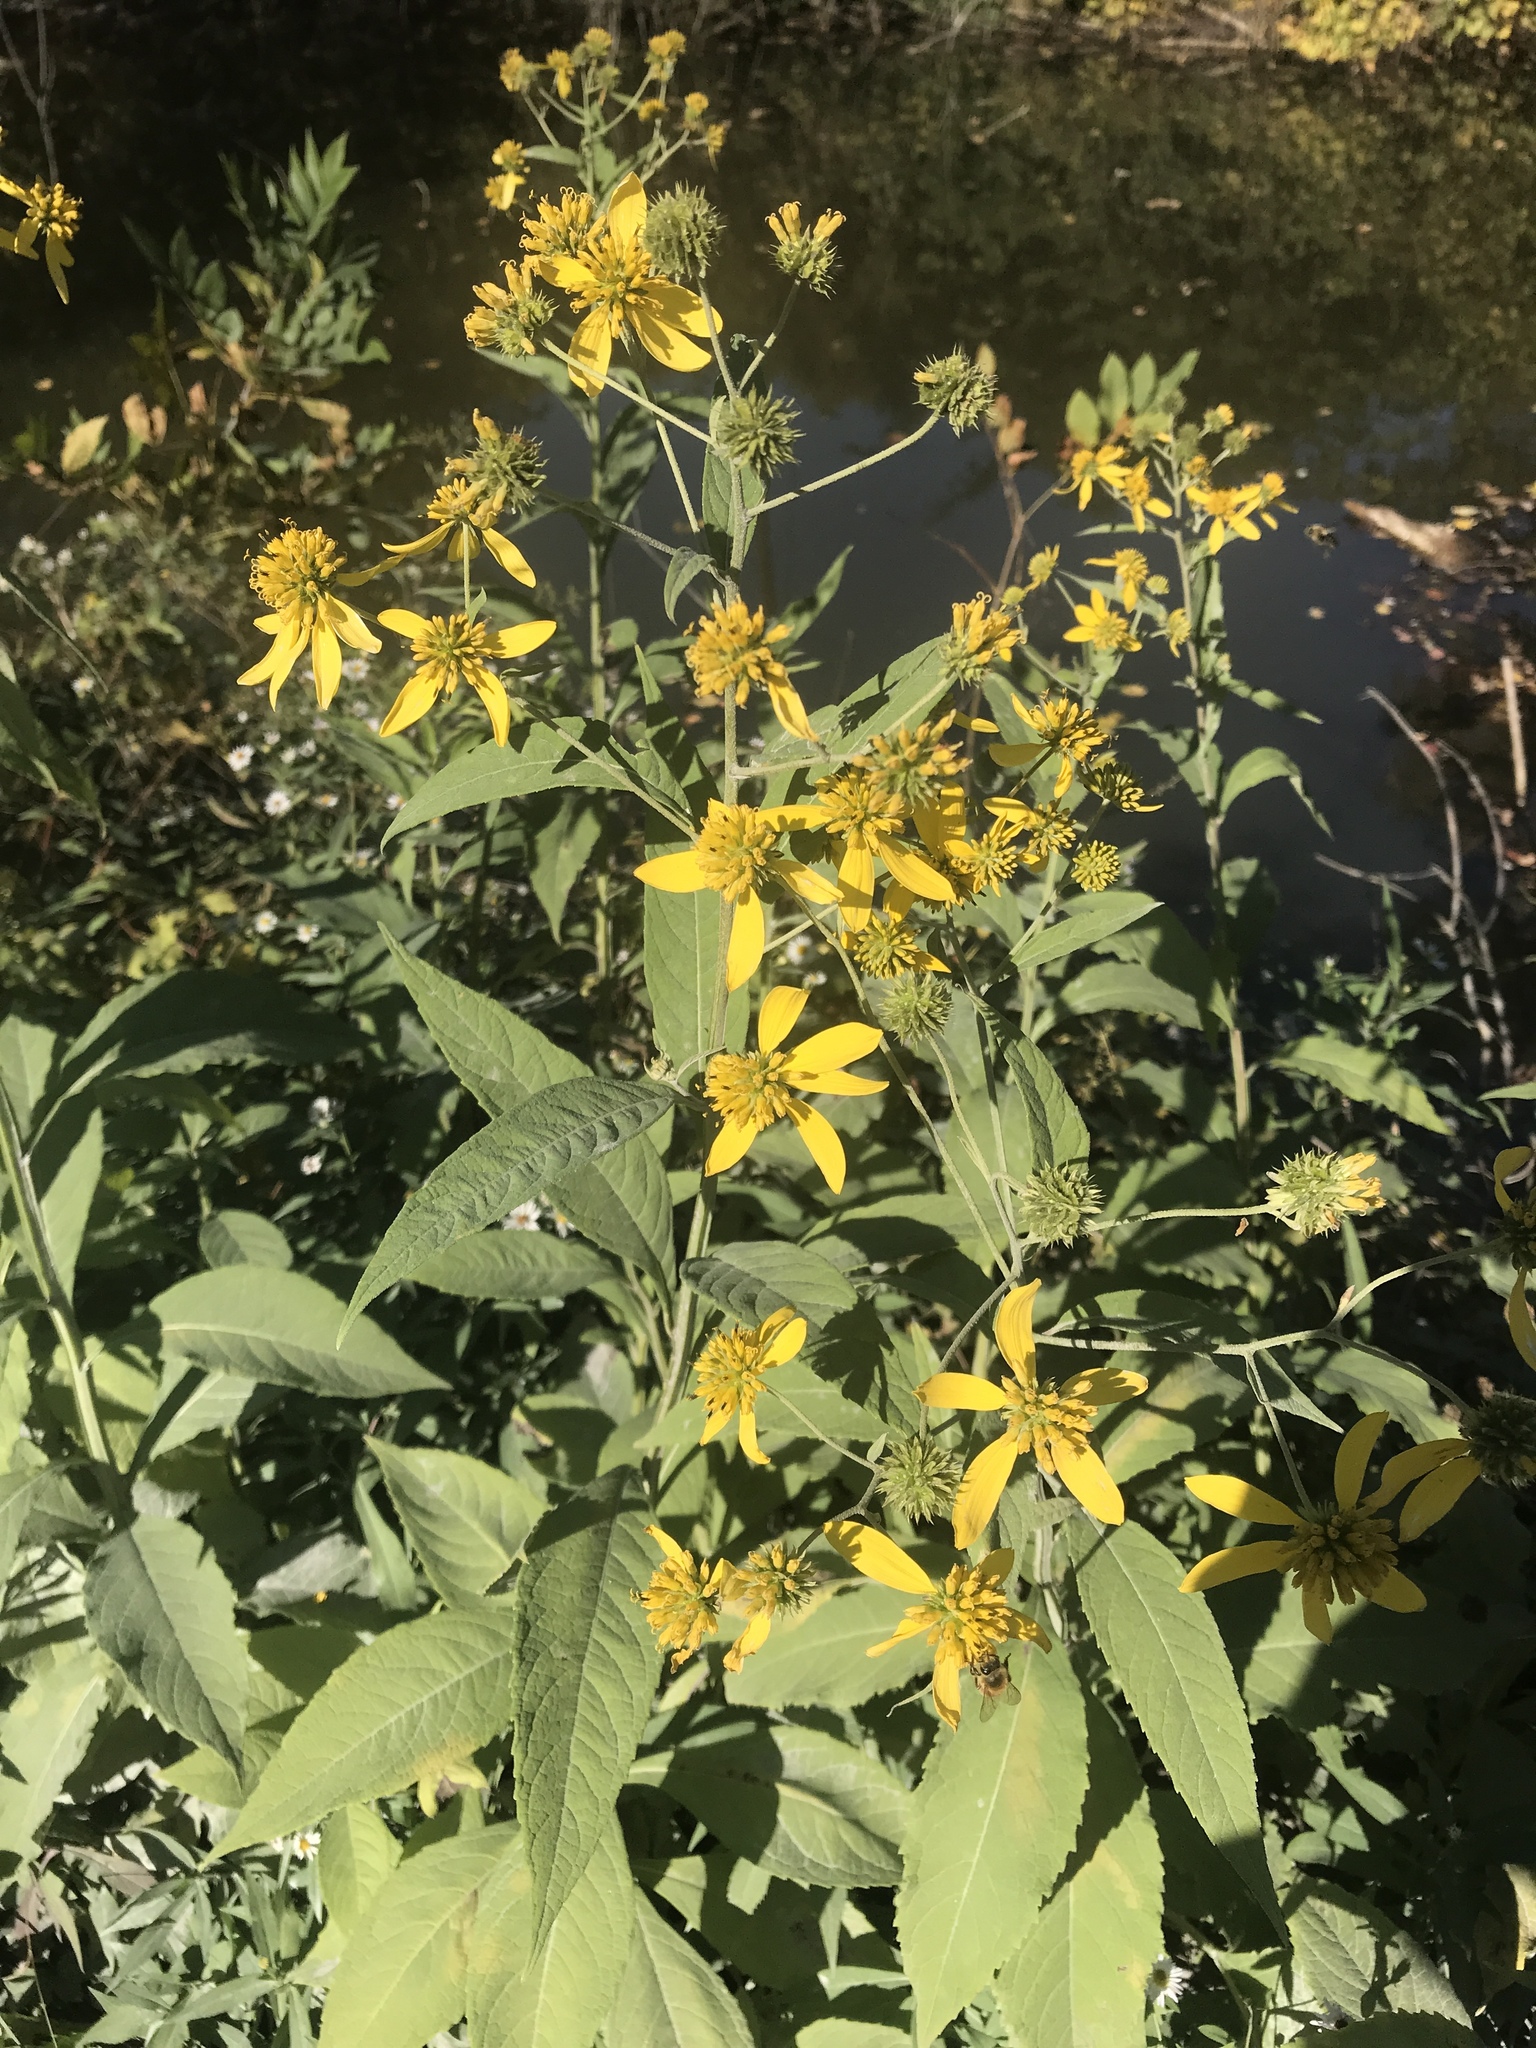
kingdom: Plantae
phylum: Tracheophyta
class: Magnoliopsida
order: Asterales
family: Asteraceae
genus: Verbesina
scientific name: Verbesina alternifolia
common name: Wingstem
